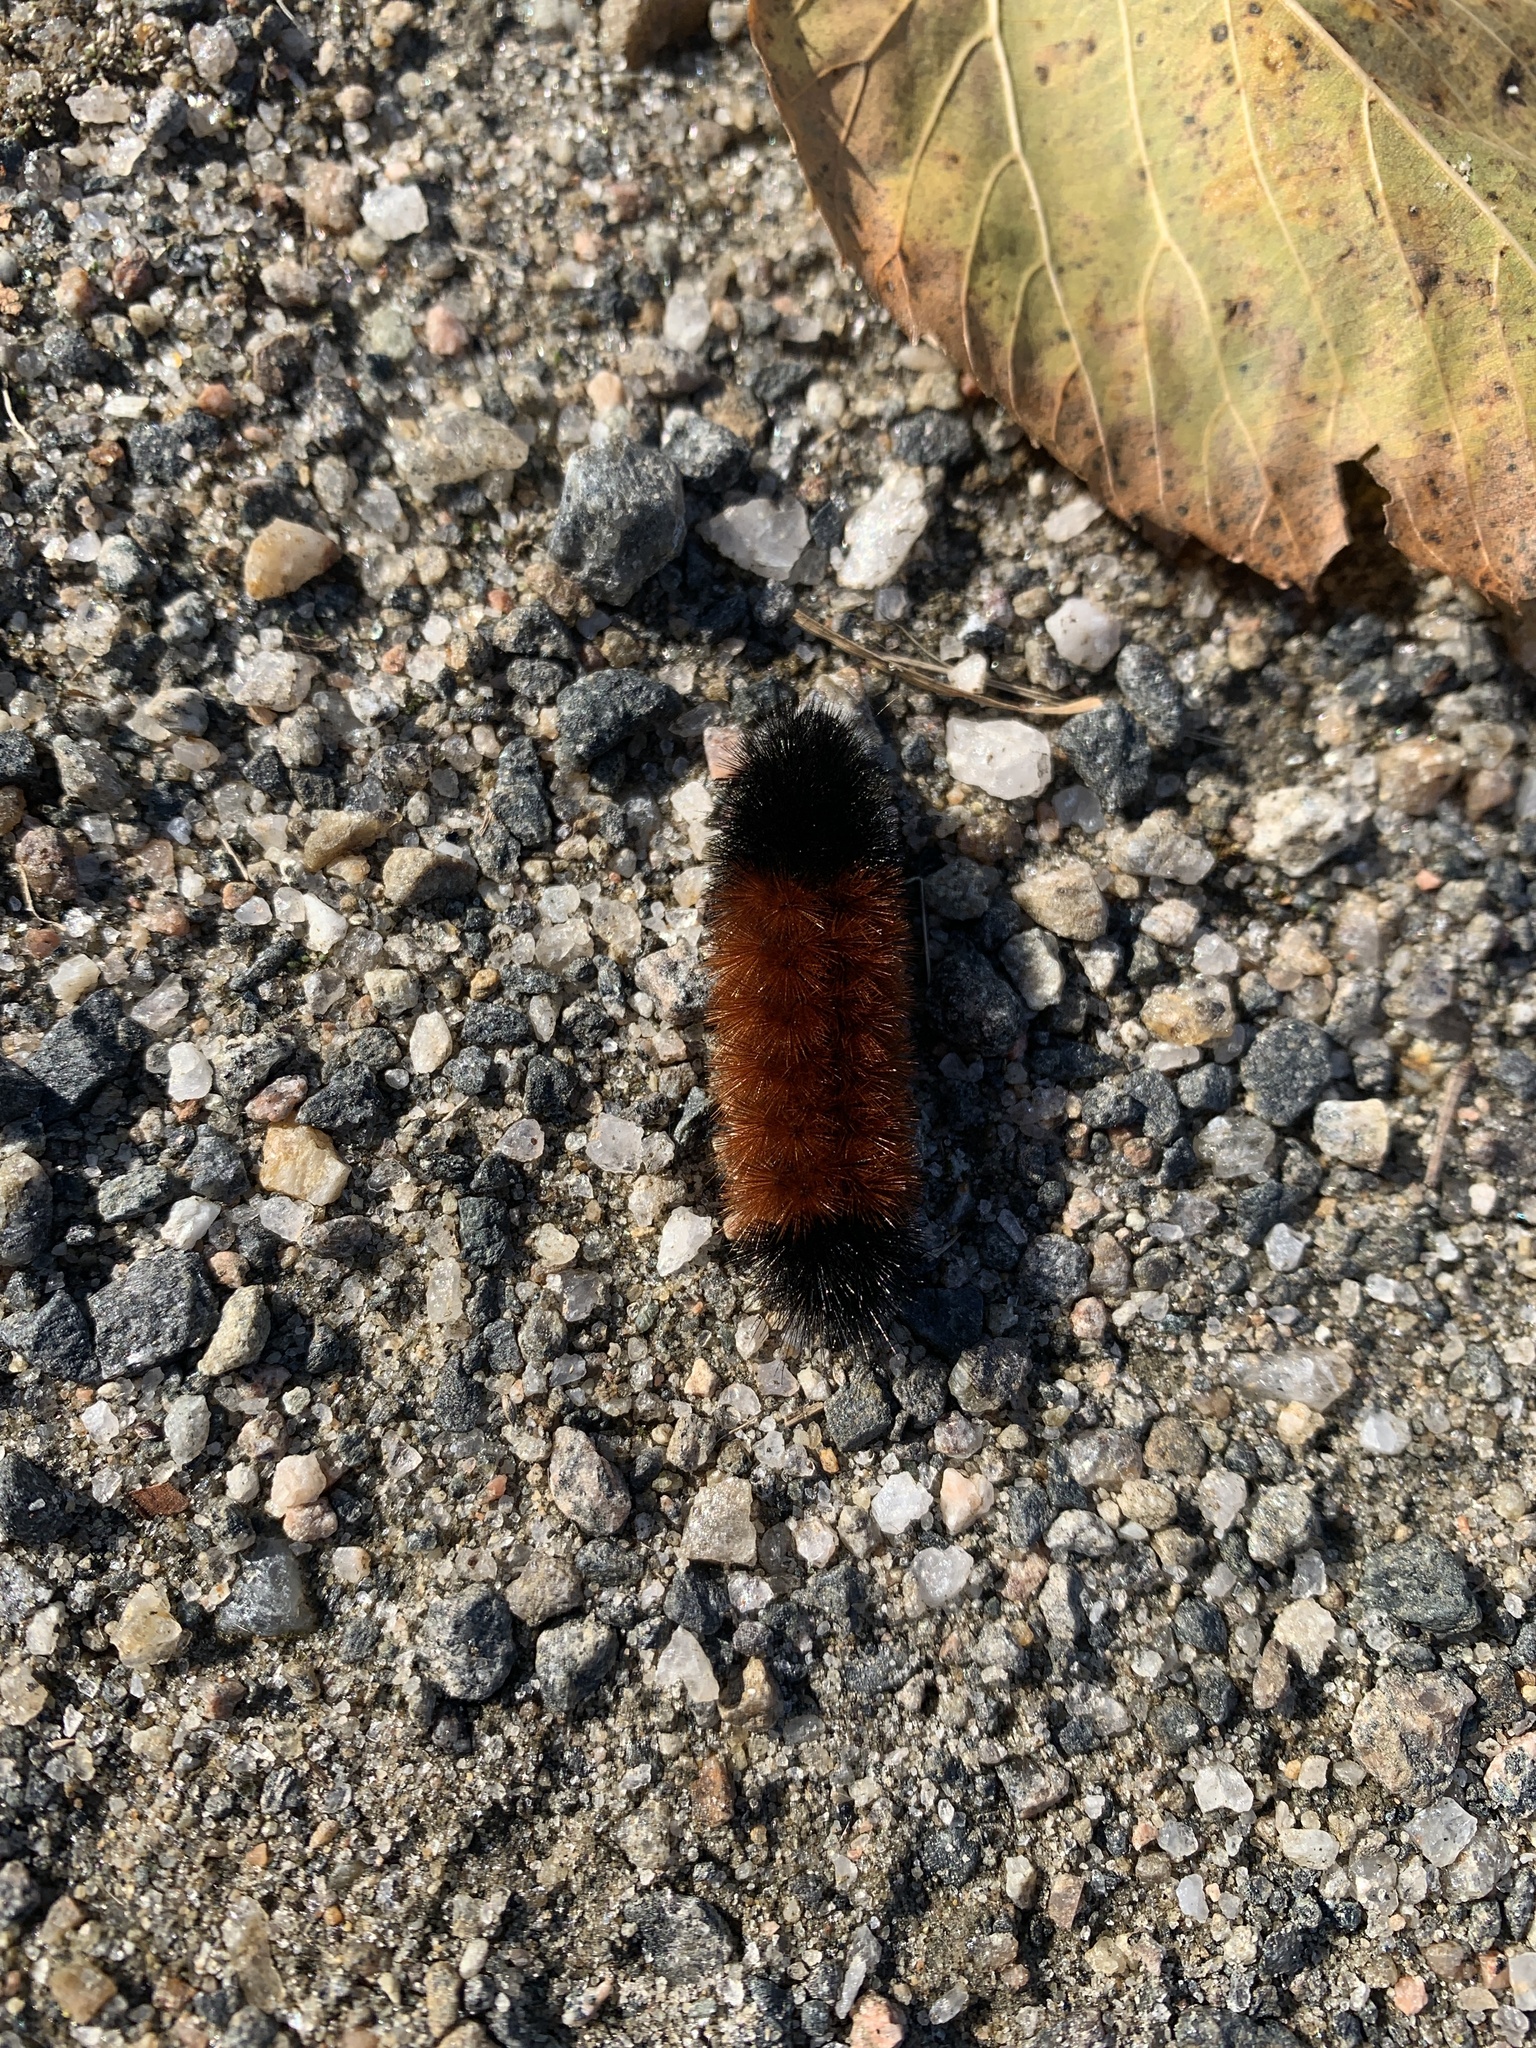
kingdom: Animalia
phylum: Arthropoda
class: Insecta
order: Lepidoptera
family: Erebidae
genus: Pyrrharctia
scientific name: Pyrrharctia isabella
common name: Isabella tiger moth
